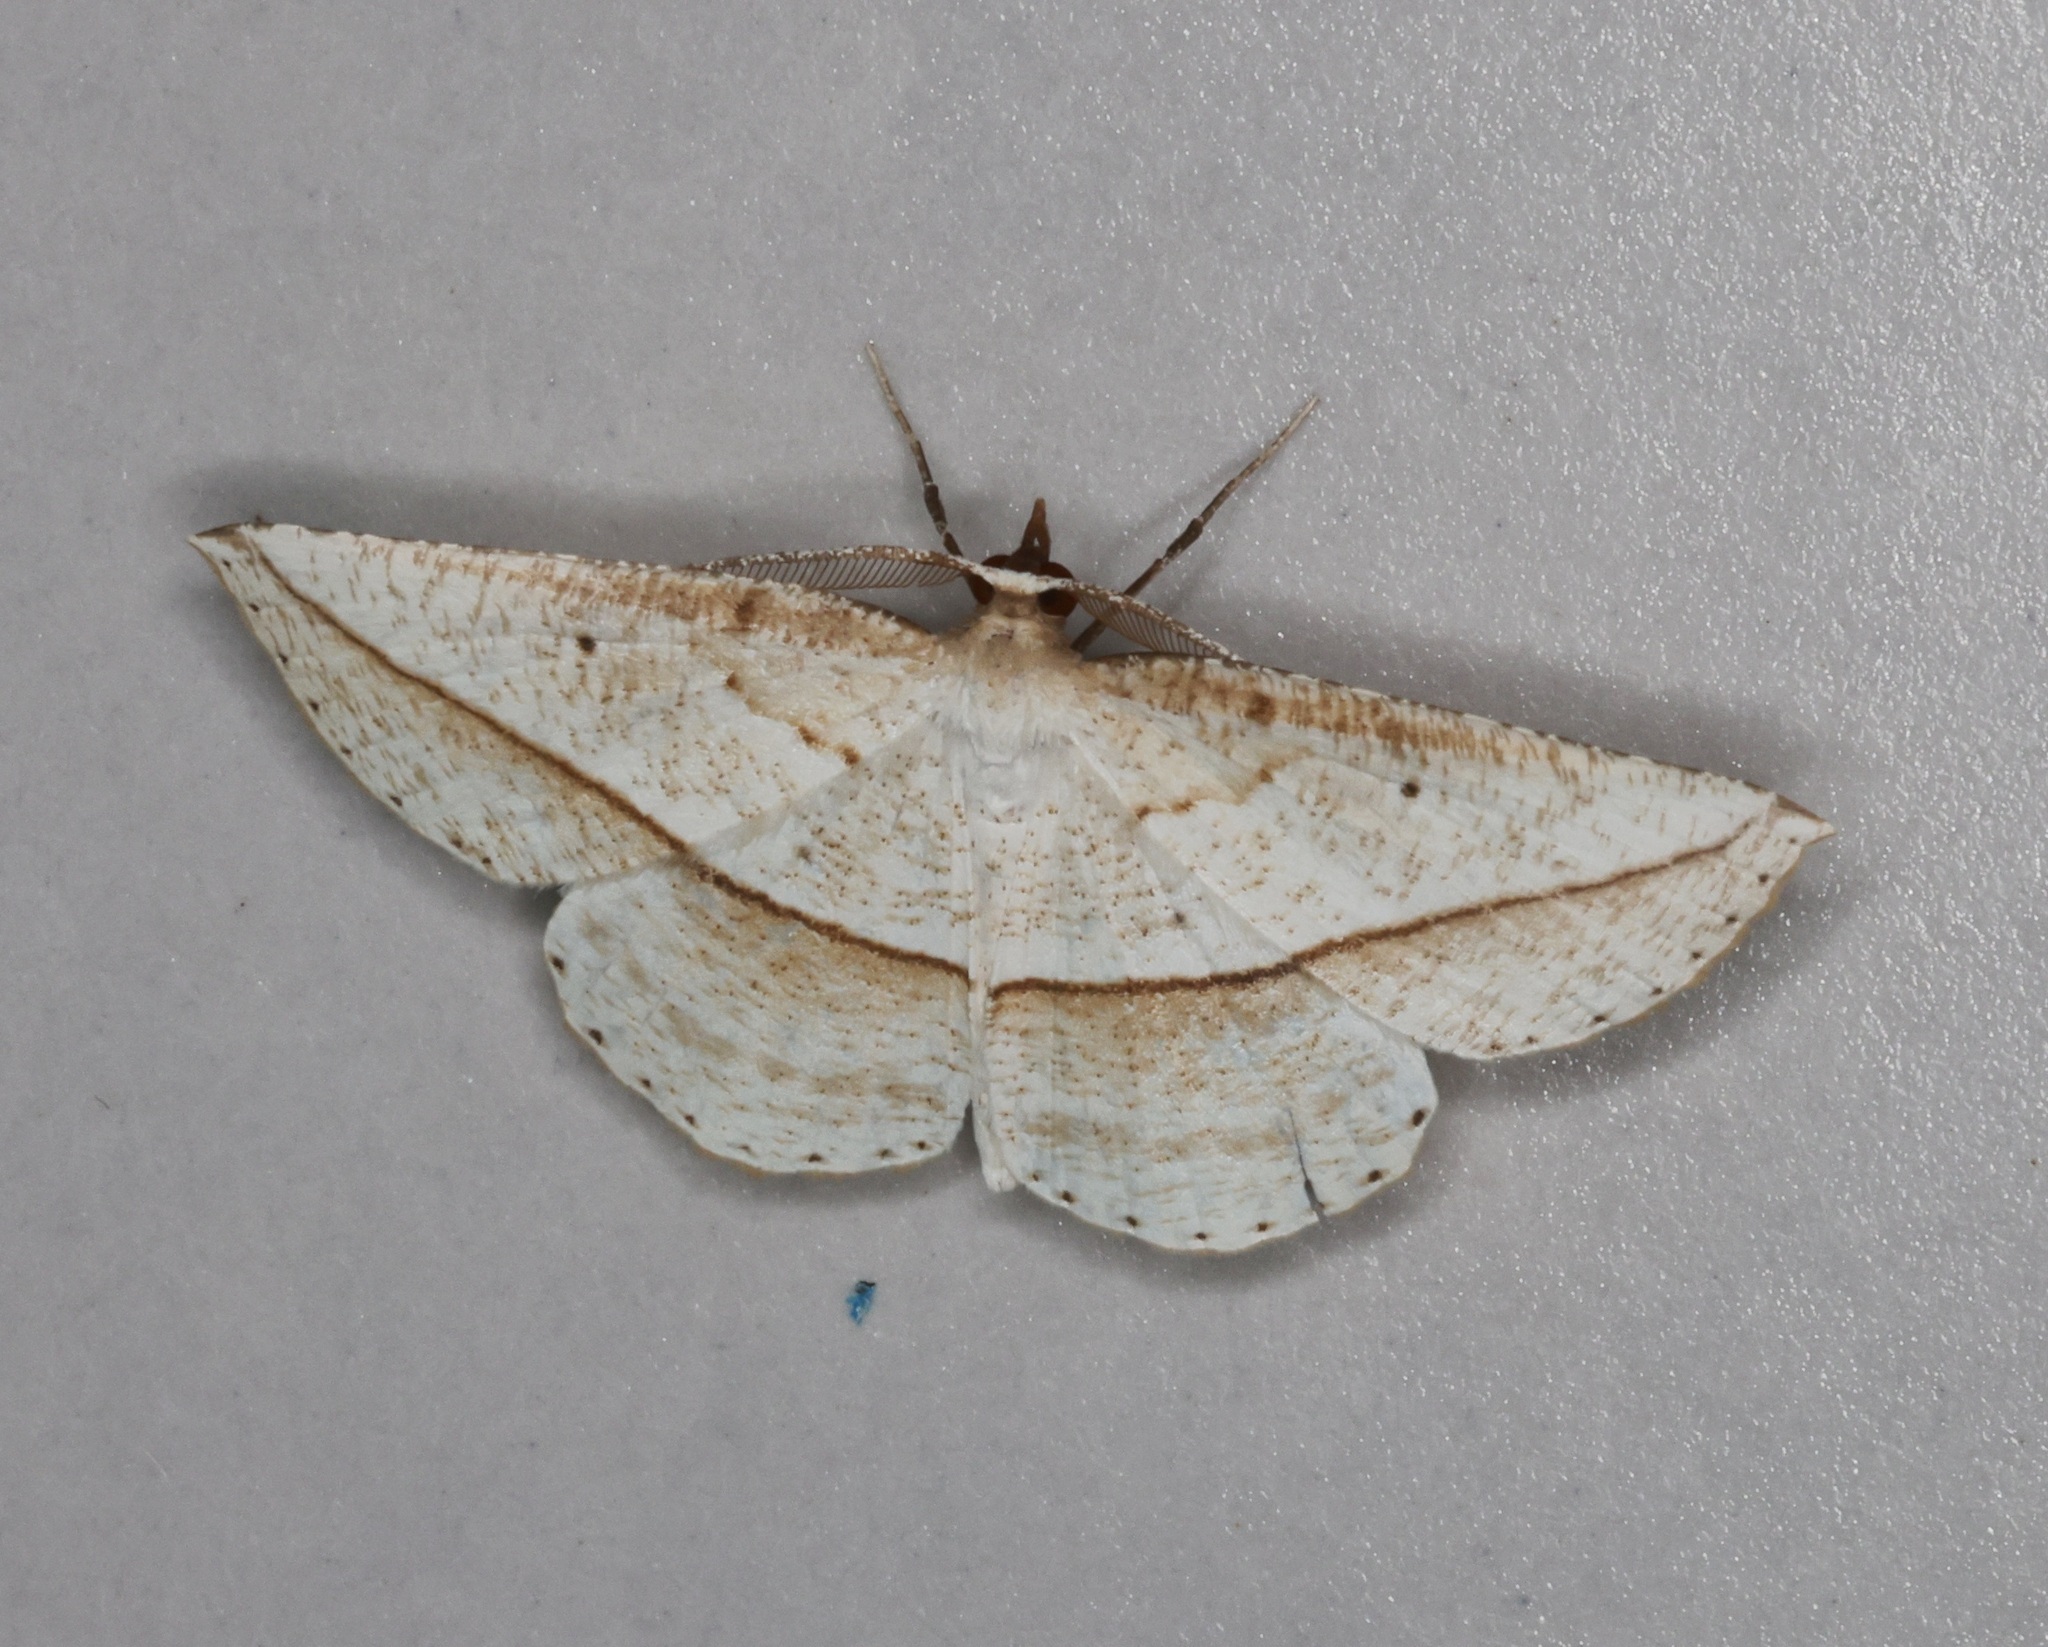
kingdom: Animalia
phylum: Arthropoda
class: Insecta
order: Lepidoptera
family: Geometridae
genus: Heteralex
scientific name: Heteralex unilinea
